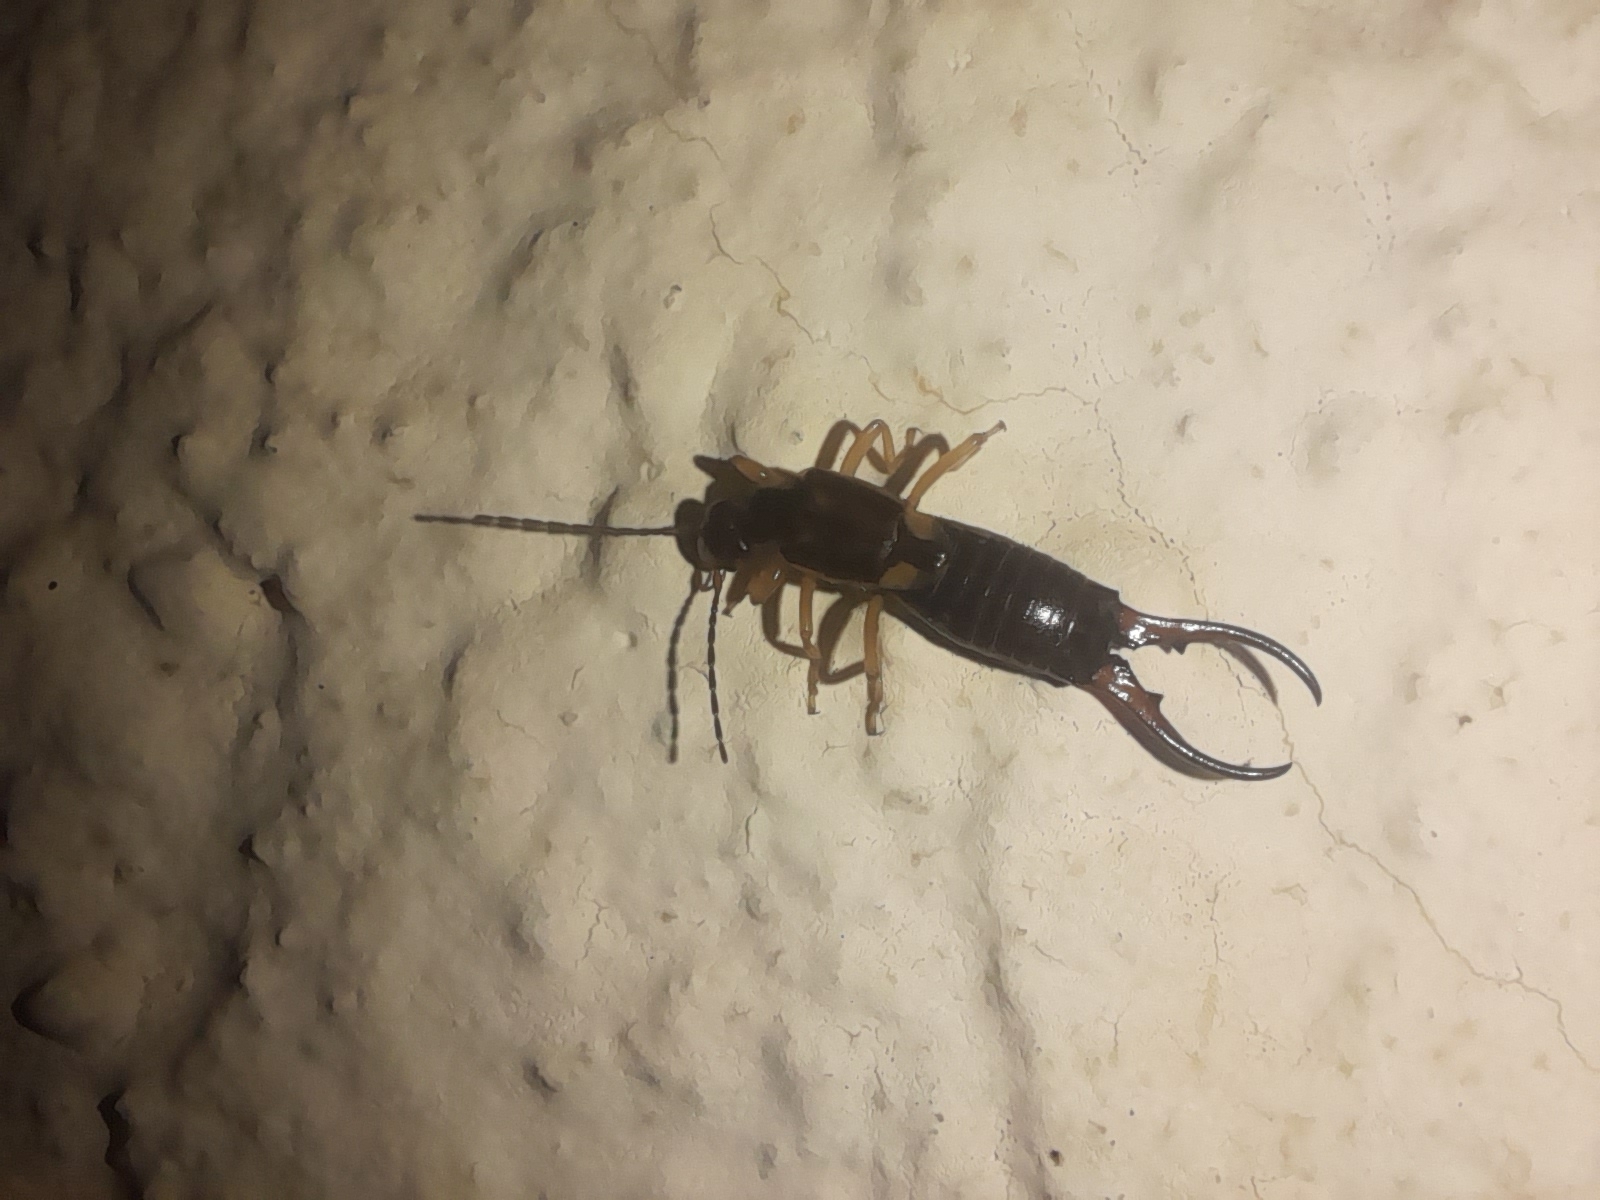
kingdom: Animalia
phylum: Arthropoda
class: Insecta
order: Dermaptera
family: Forficulidae
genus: Forficula
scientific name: Forficula auricularia
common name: European earwig
